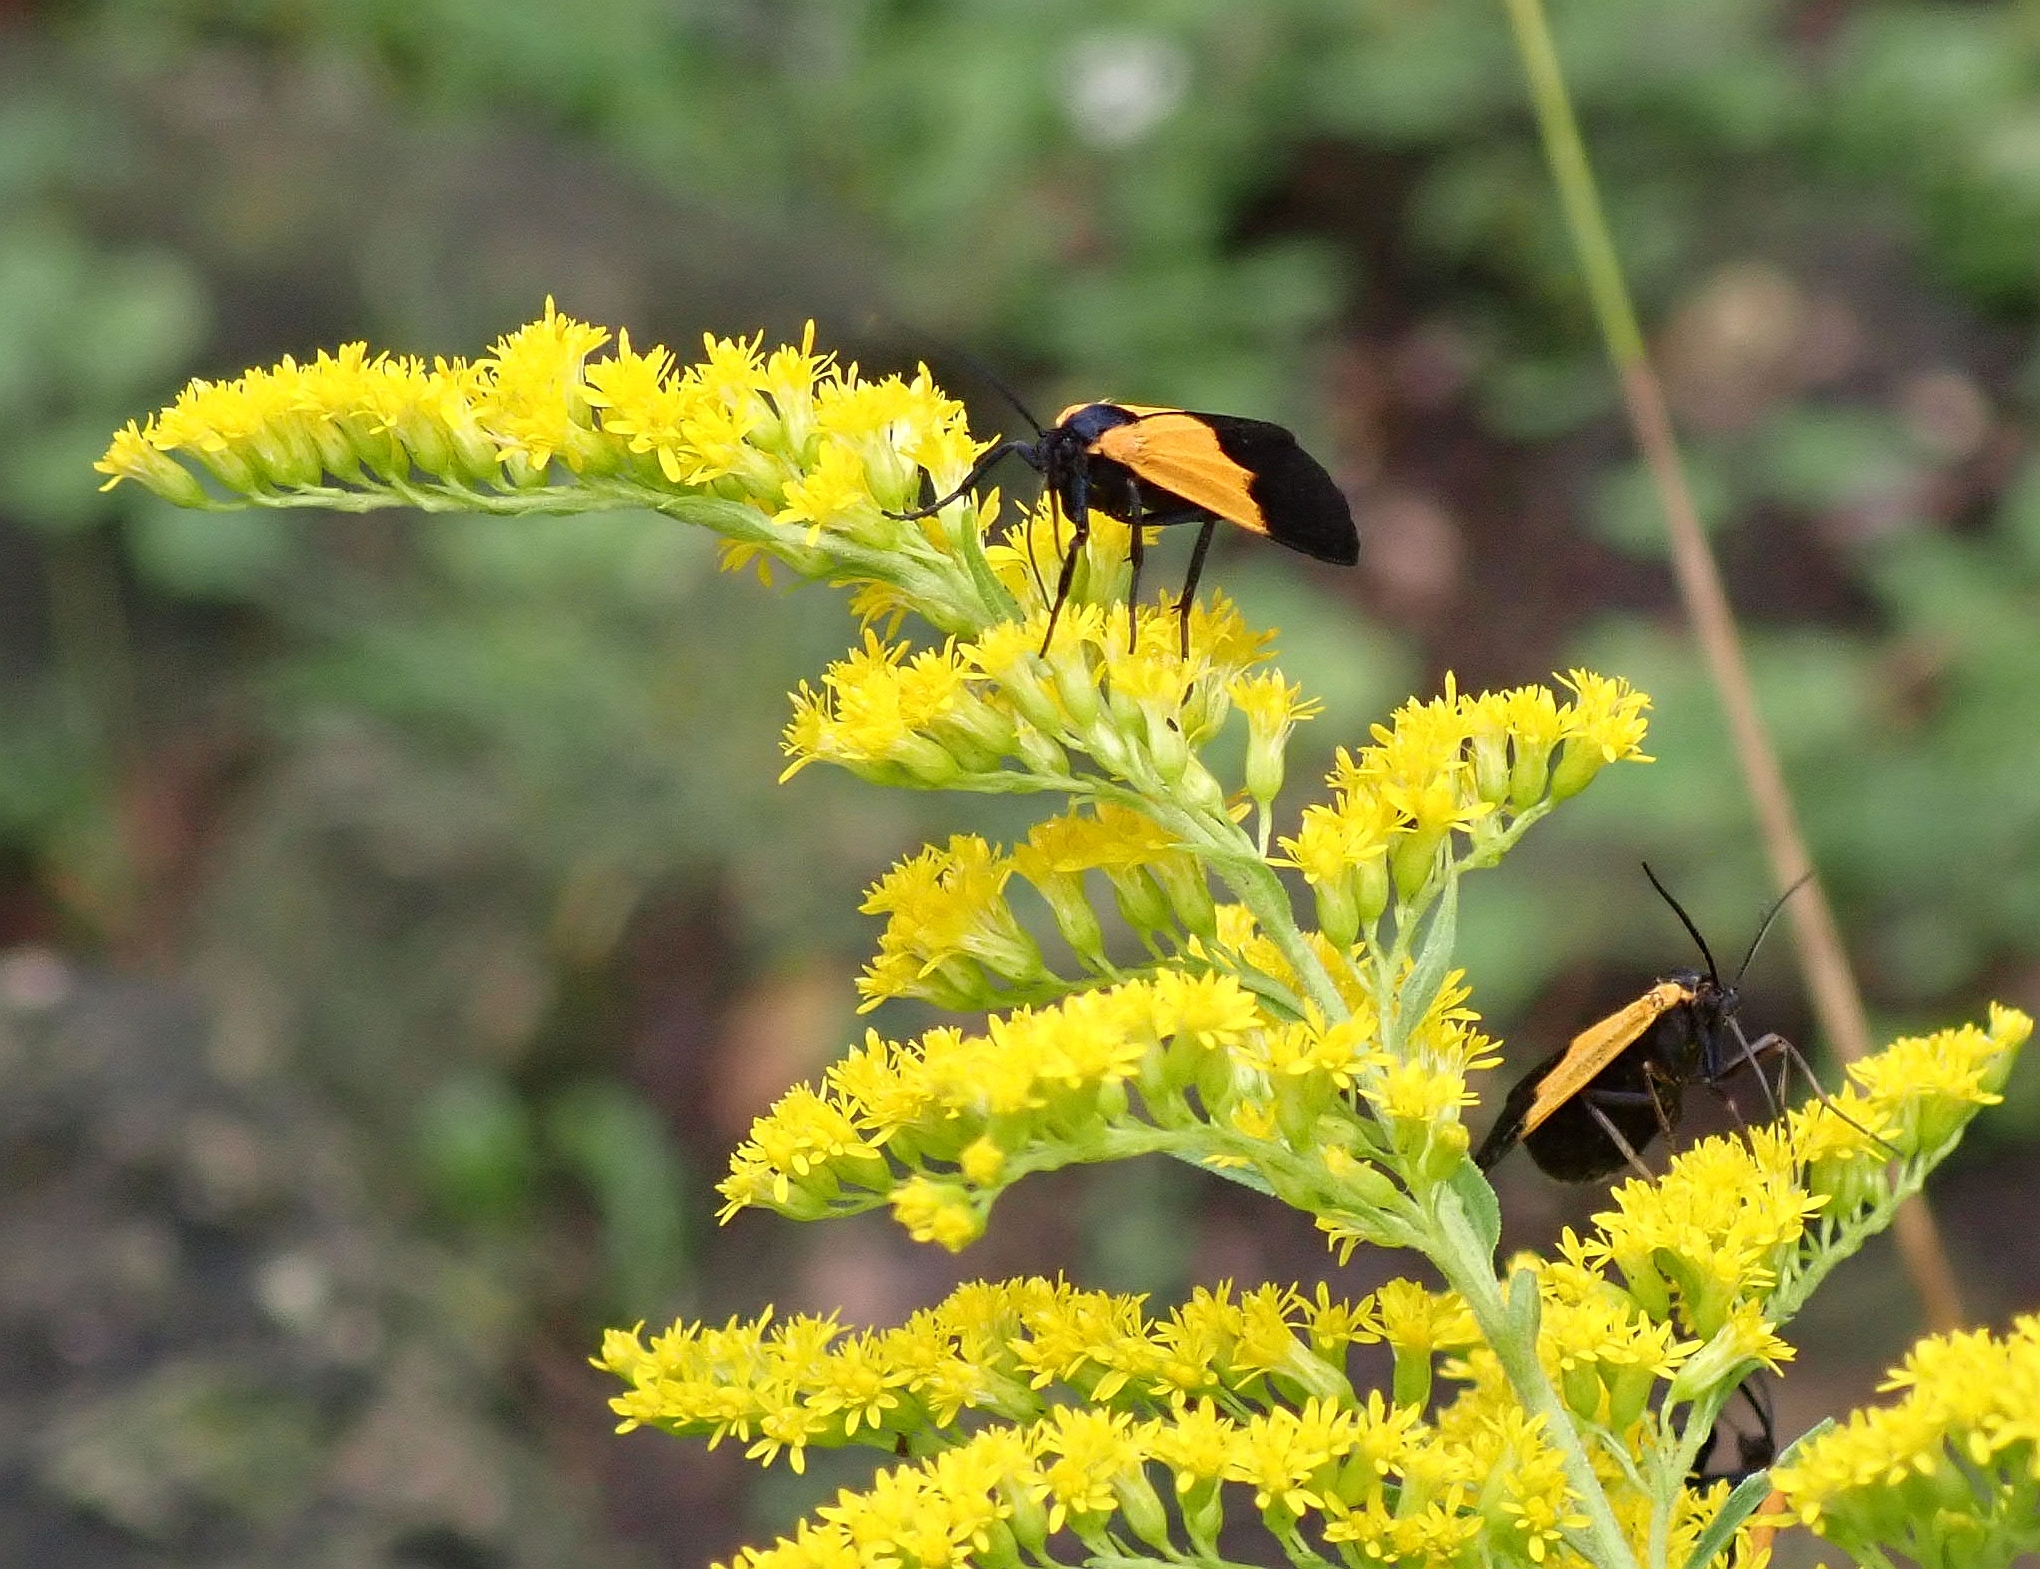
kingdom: Animalia
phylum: Arthropoda
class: Insecta
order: Lepidoptera
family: Erebidae
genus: Lycomorpha
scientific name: Lycomorpha pholus
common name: Black-and-yellow lichen moth
